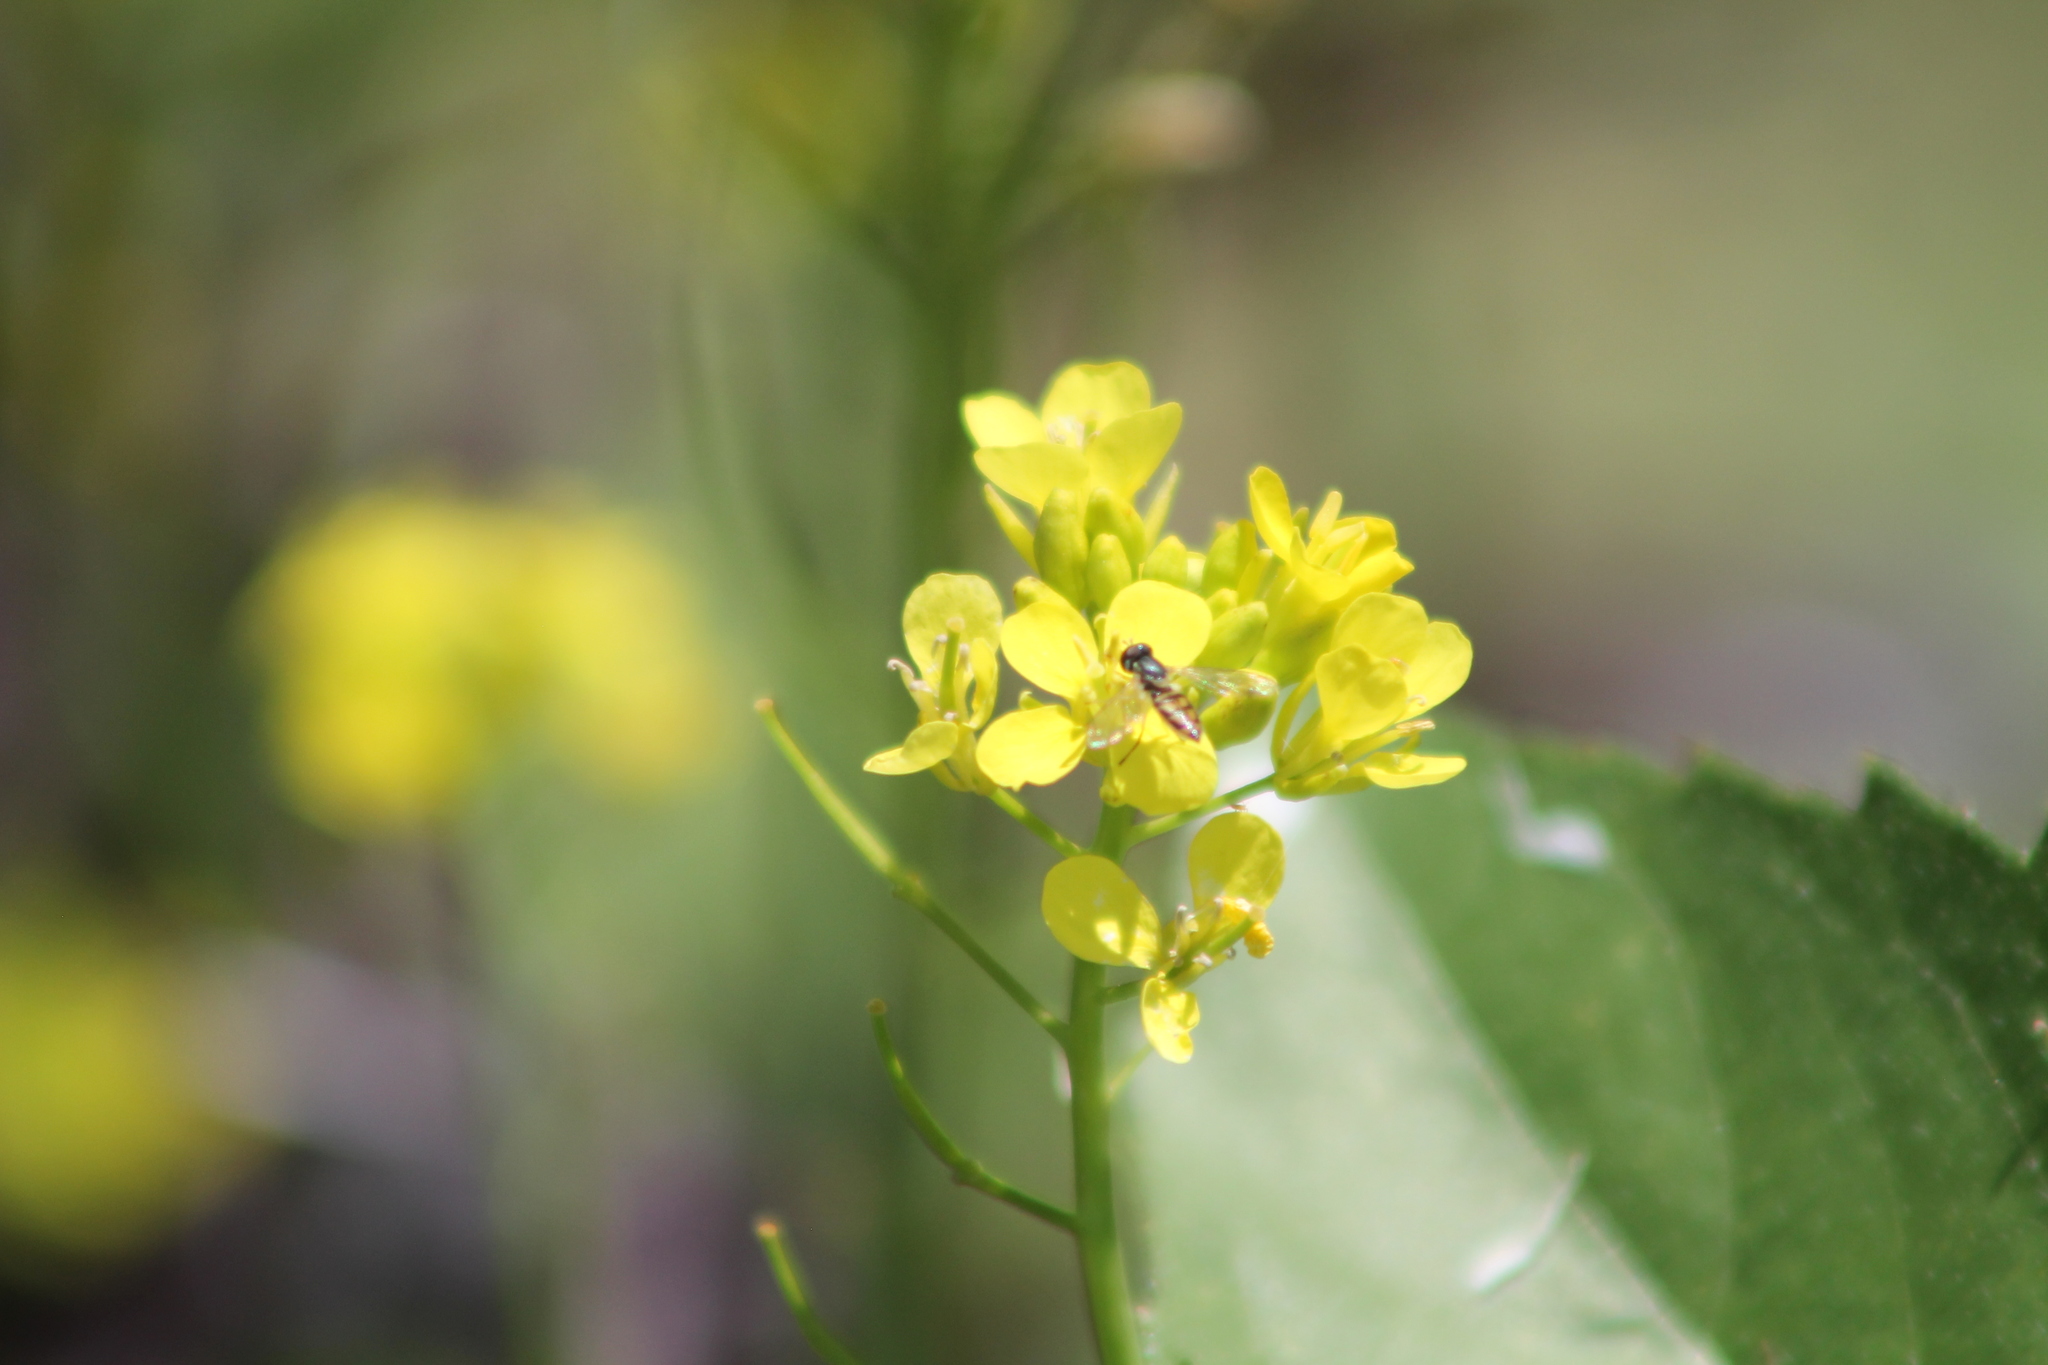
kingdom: Animalia
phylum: Arthropoda
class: Insecta
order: Diptera
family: Syrphidae
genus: Toxomerus
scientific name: Toxomerus marginatus
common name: Syrphid fly
